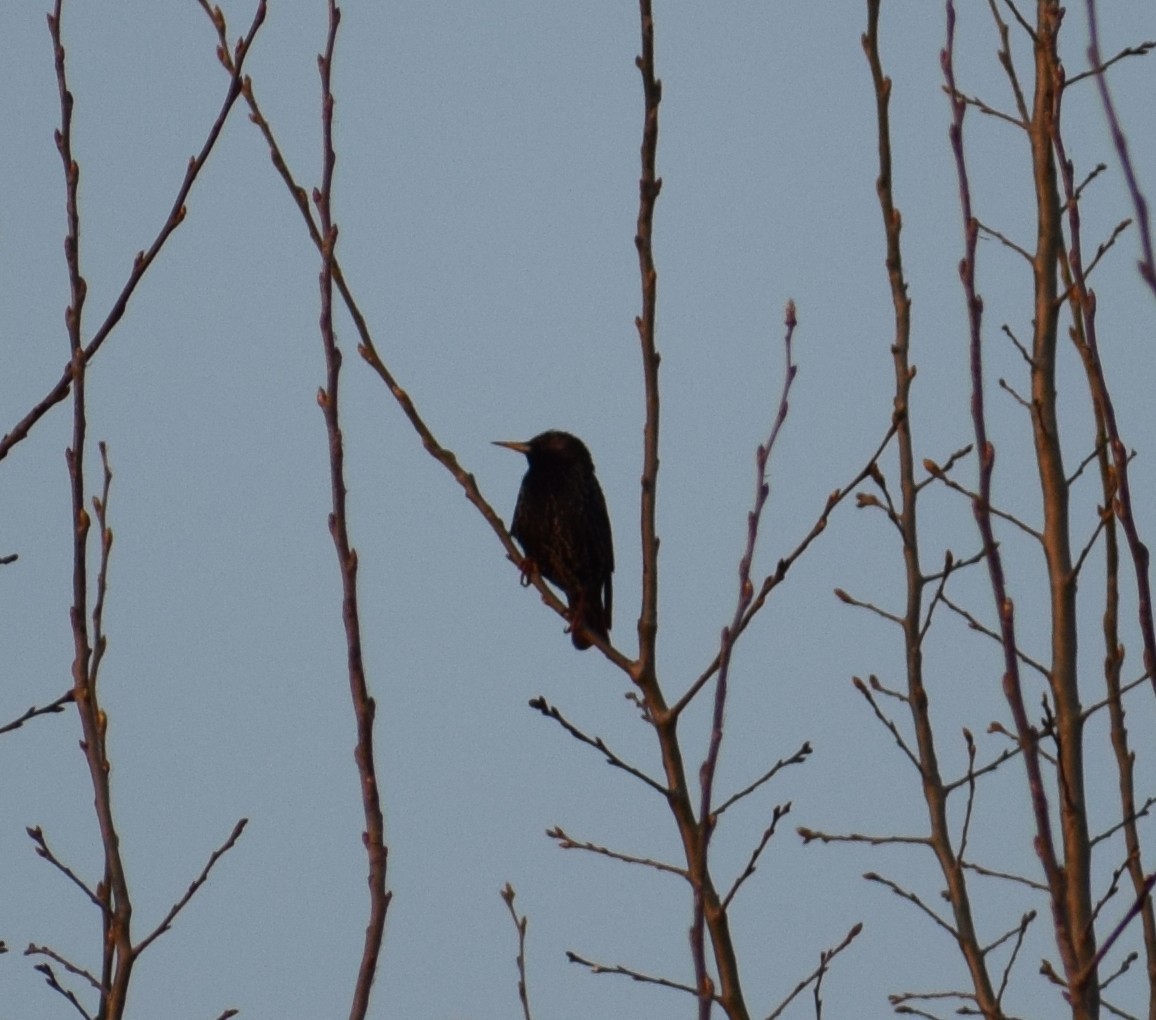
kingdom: Animalia
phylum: Chordata
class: Aves
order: Passeriformes
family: Sturnidae
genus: Sturnus
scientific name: Sturnus vulgaris
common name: Common starling
